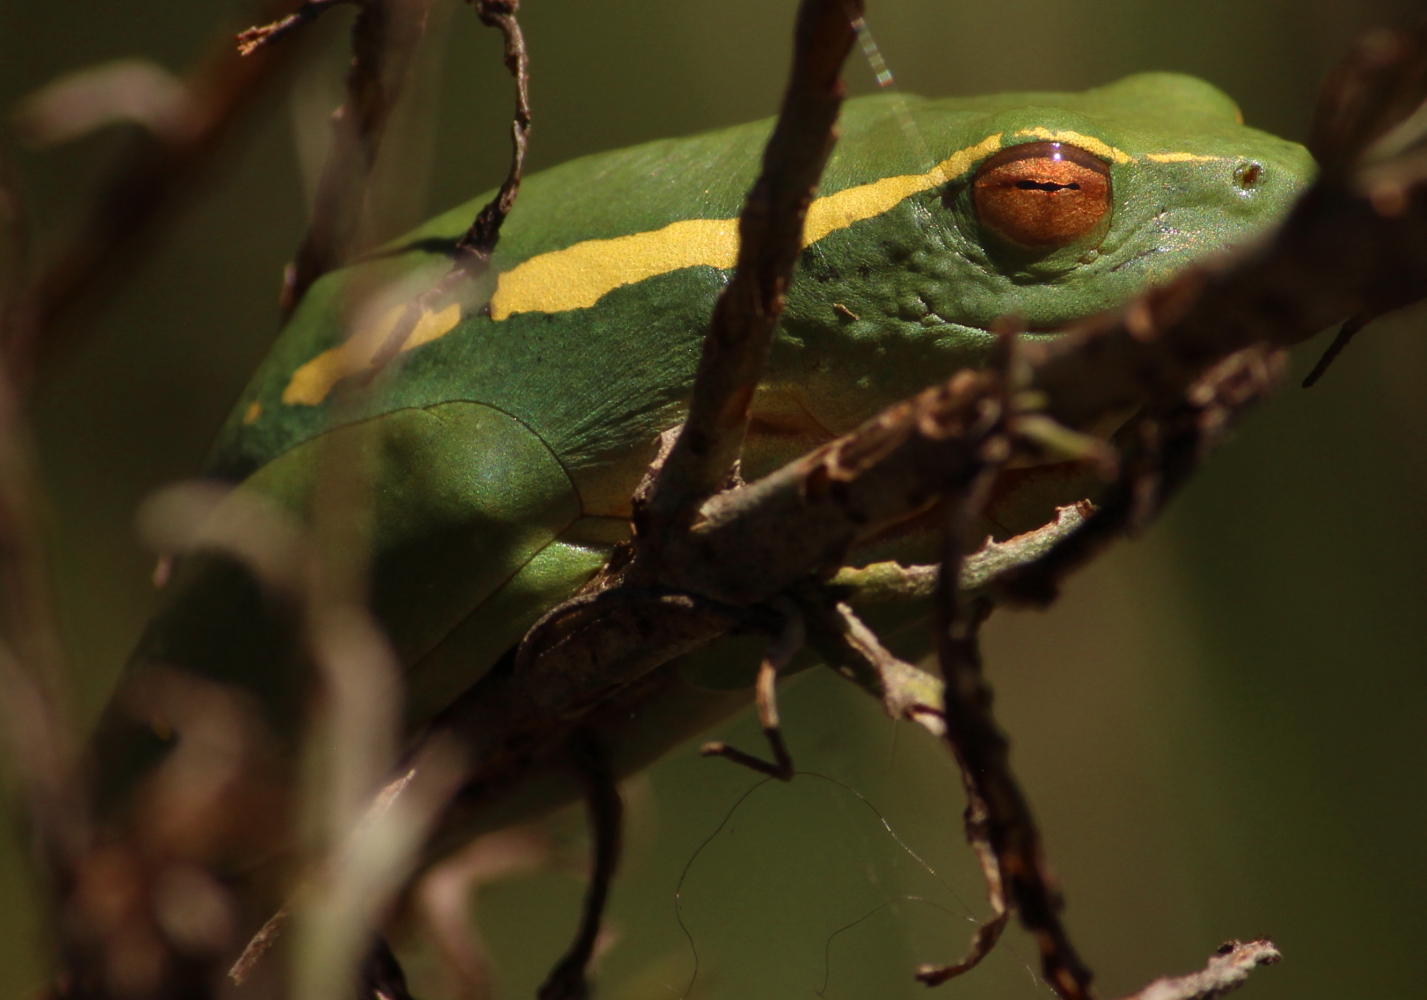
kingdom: Animalia
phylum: Chordata
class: Amphibia
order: Anura
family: Hyperoliidae
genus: Hyperolius
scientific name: Hyperolius semidiscus
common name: Yellow-striped reed frog
